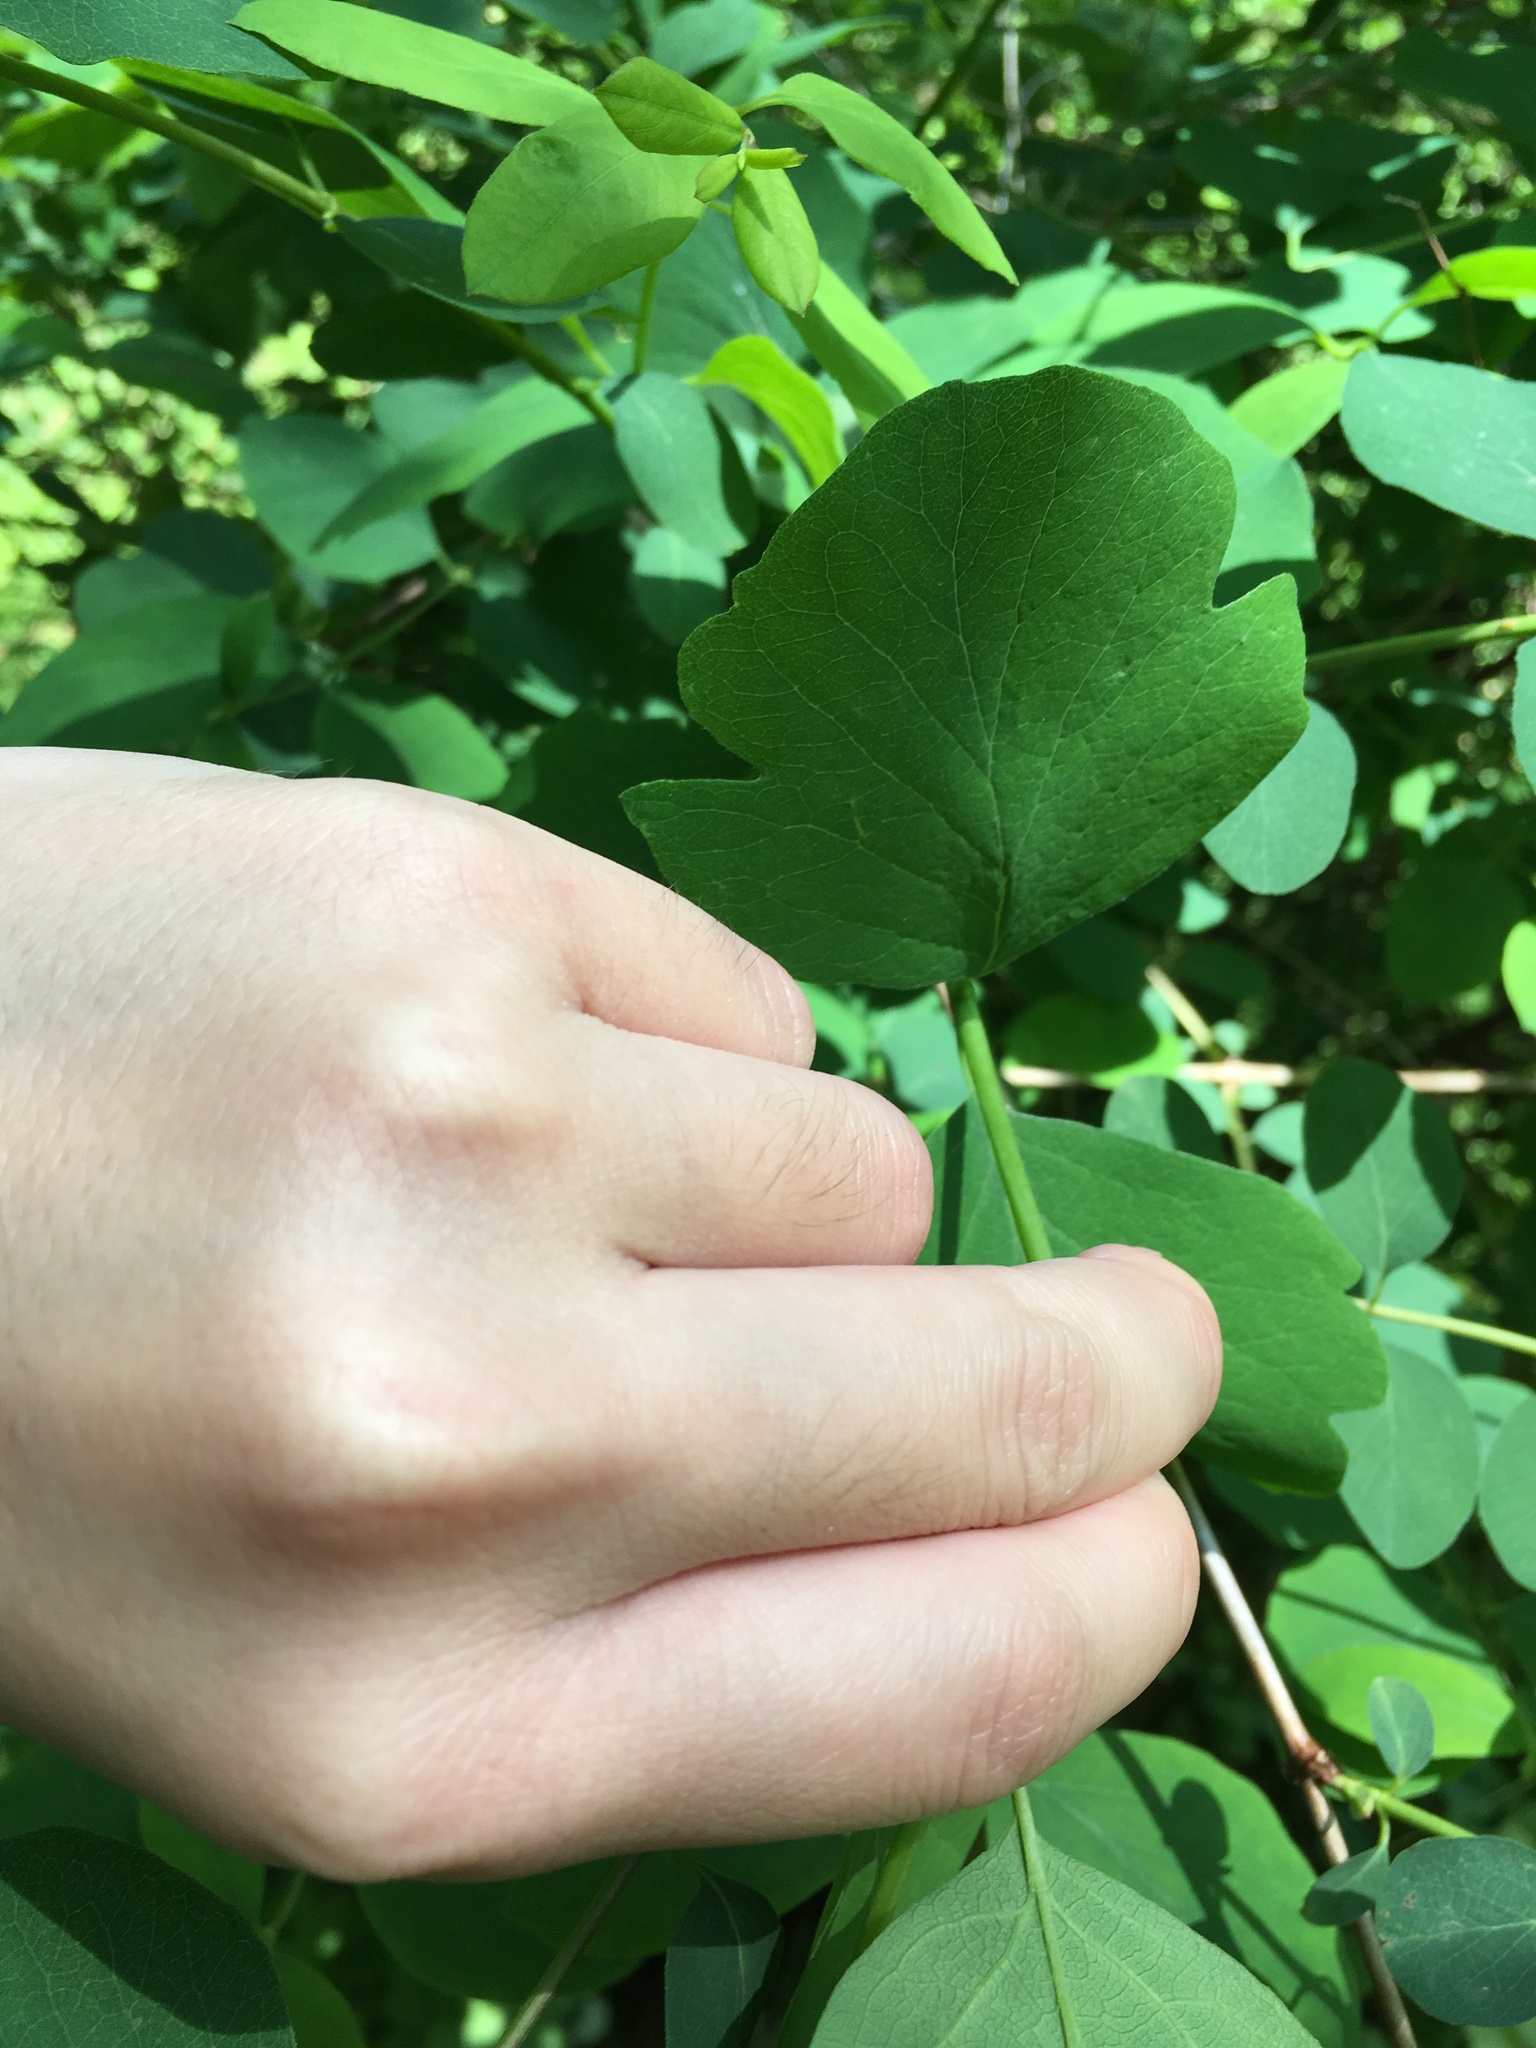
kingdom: Plantae
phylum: Tracheophyta
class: Magnoliopsida
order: Dipsacales
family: Caprifoliaceae
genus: Symphoricarpos
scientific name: Symphoricarpos albus
